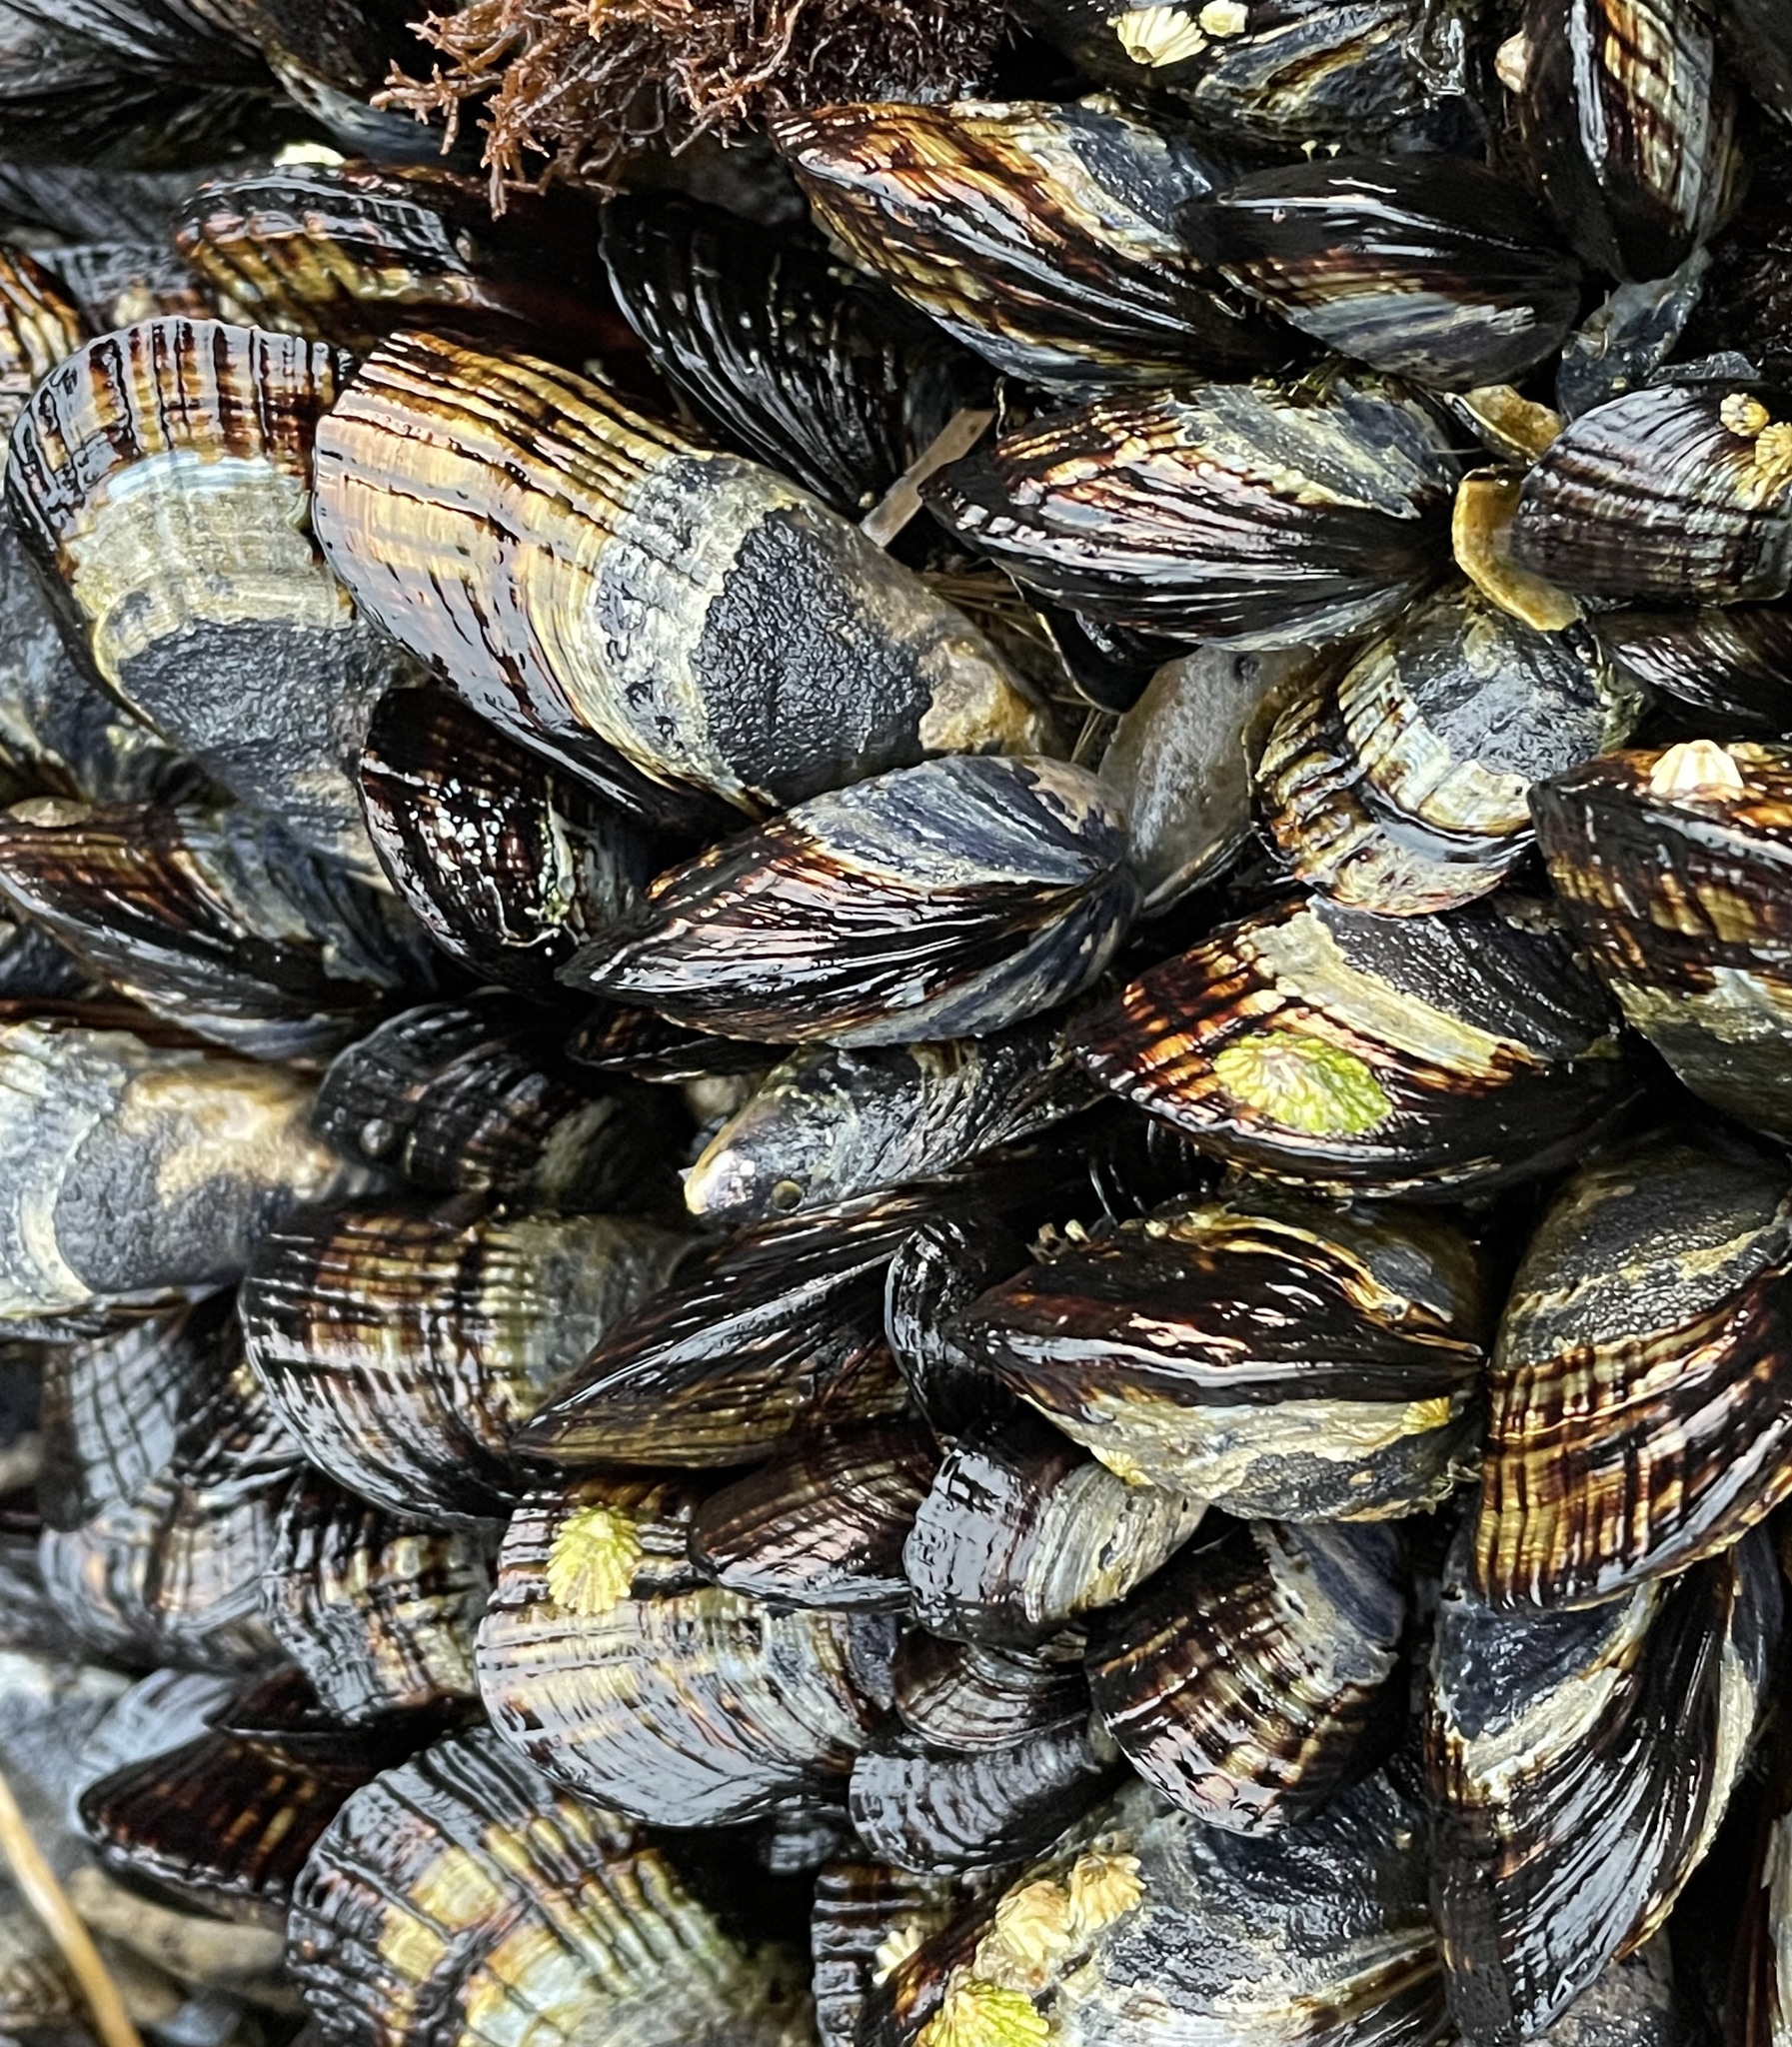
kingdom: Animalia
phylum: Mollusca
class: Bivalvia
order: Mytilida
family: Mytilidae
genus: Mytilus
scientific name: Mytilus californianus
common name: California mussel
